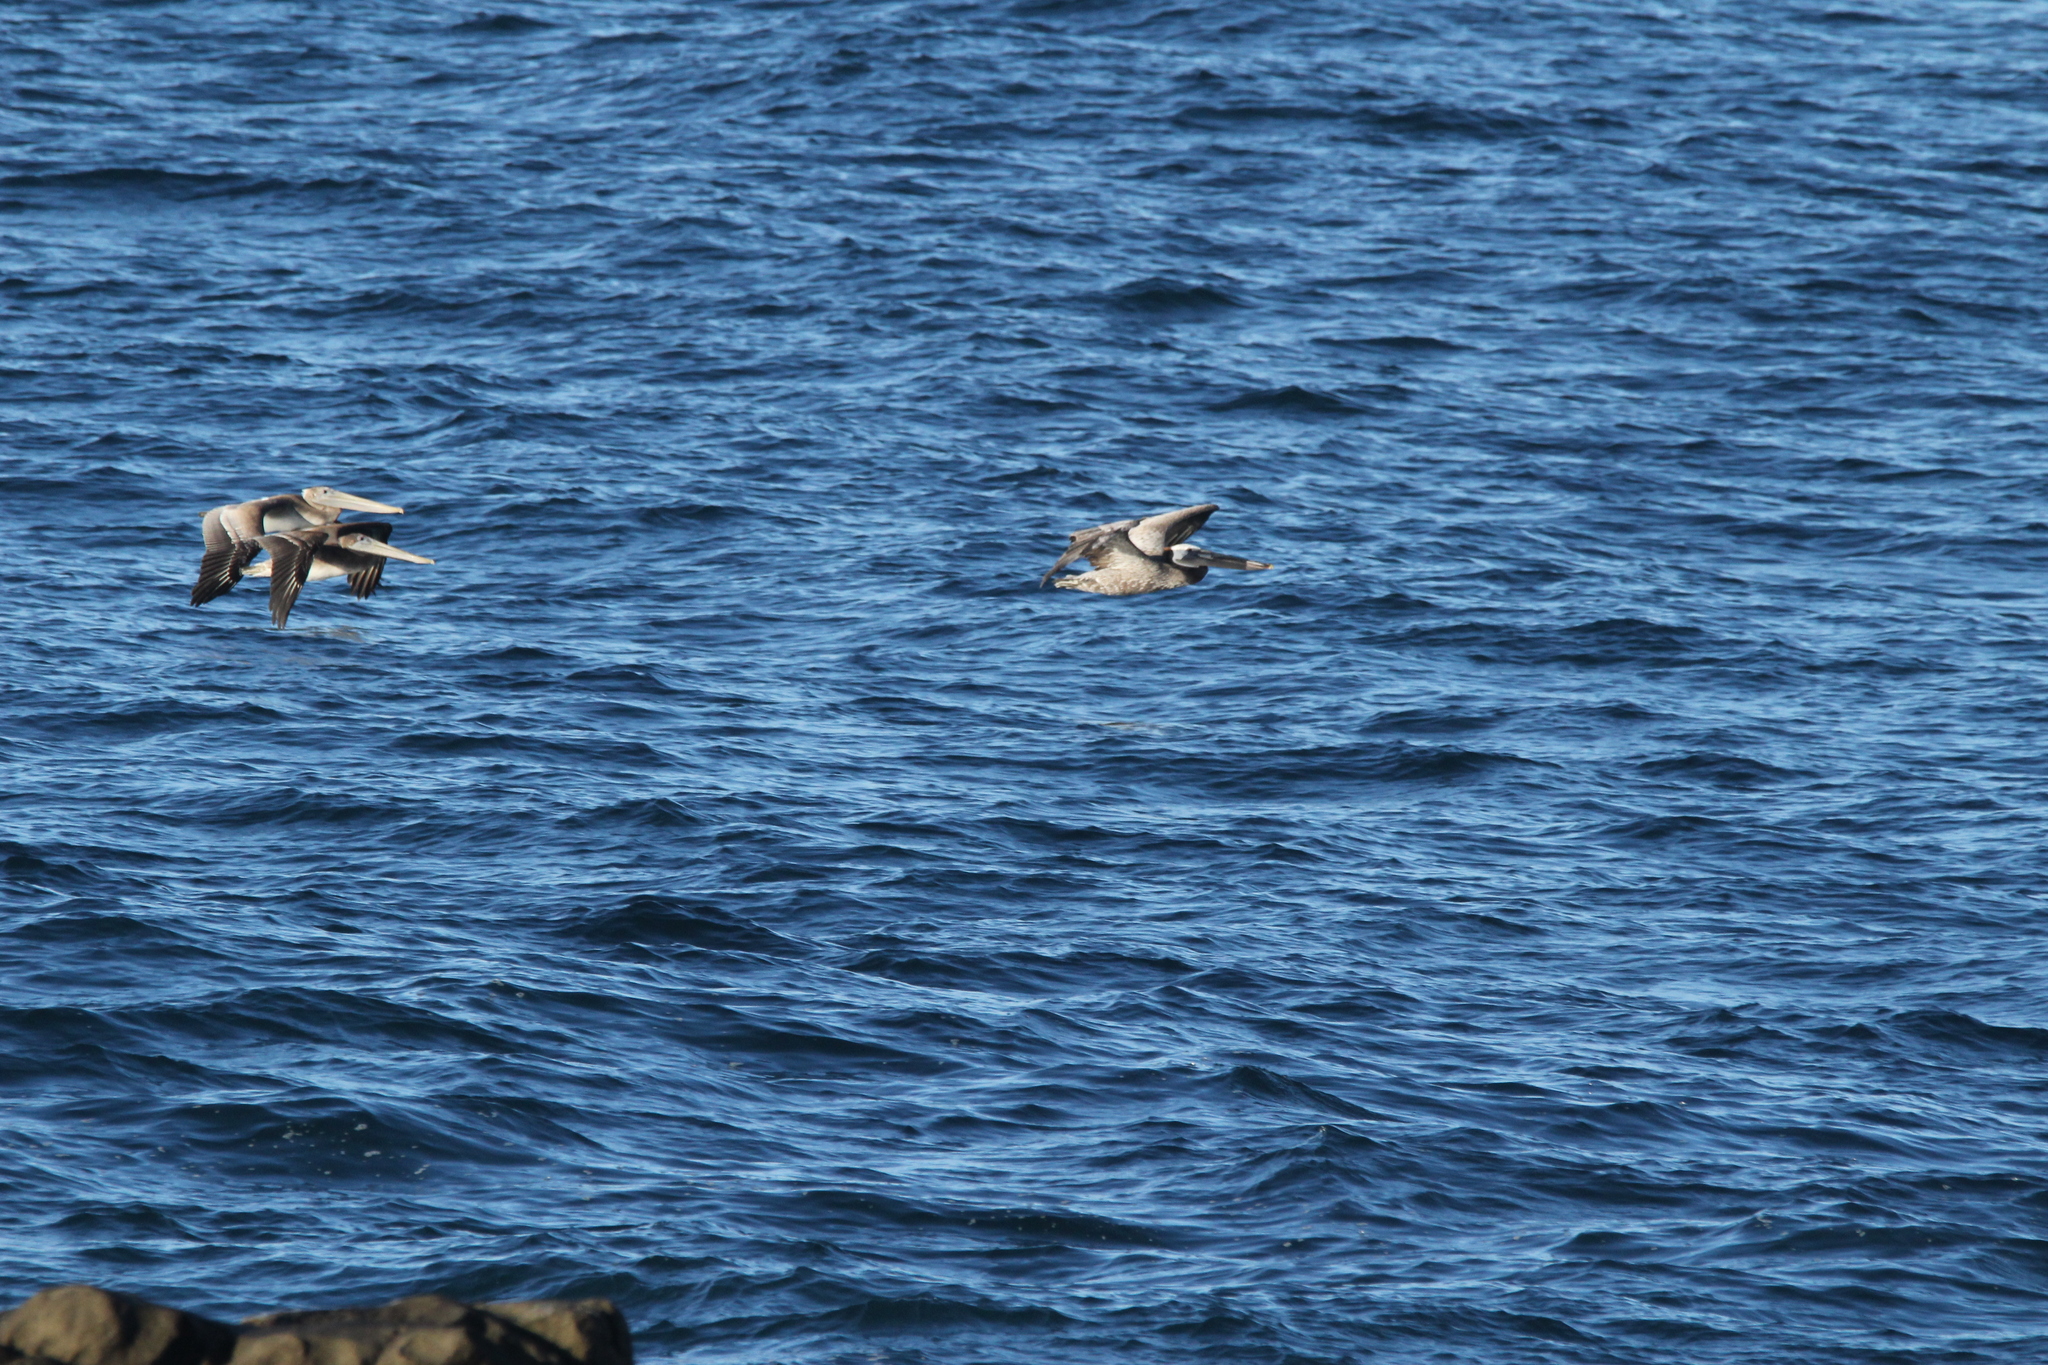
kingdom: Animalia
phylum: Chordata
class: Aves
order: Pelecaniformes
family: Pelecanidae
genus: Pelecanus
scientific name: Pelecanus occidentalis
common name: Brown pelican
